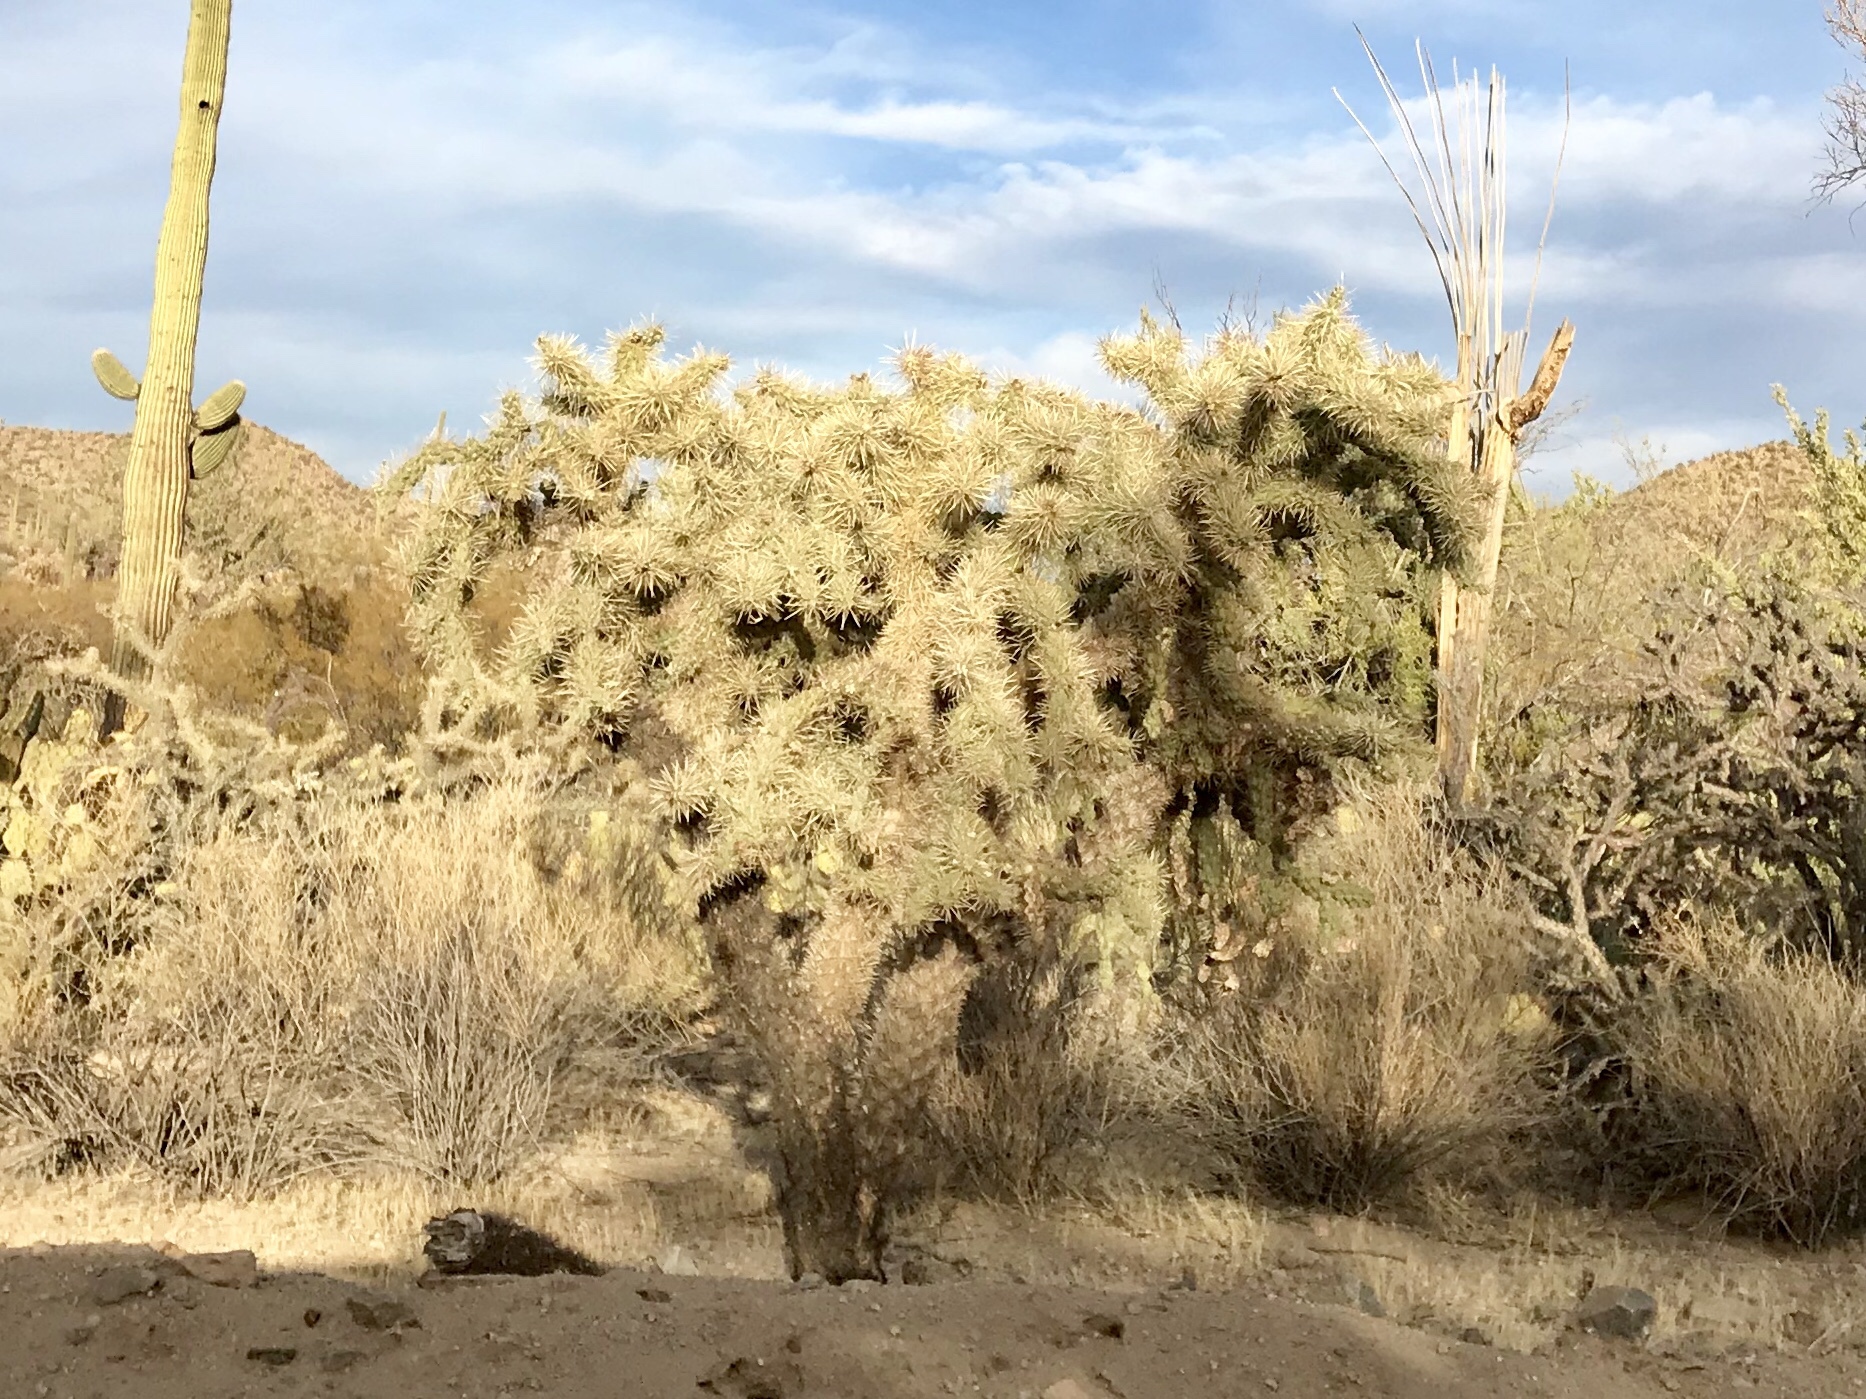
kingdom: Plantae
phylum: Tracheophyta
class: Magnoliopsida
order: Caryophyllales
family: Cactaceae
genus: Cylindropuntia
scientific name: Cylindropuntia fulgida
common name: Jumping cholla
